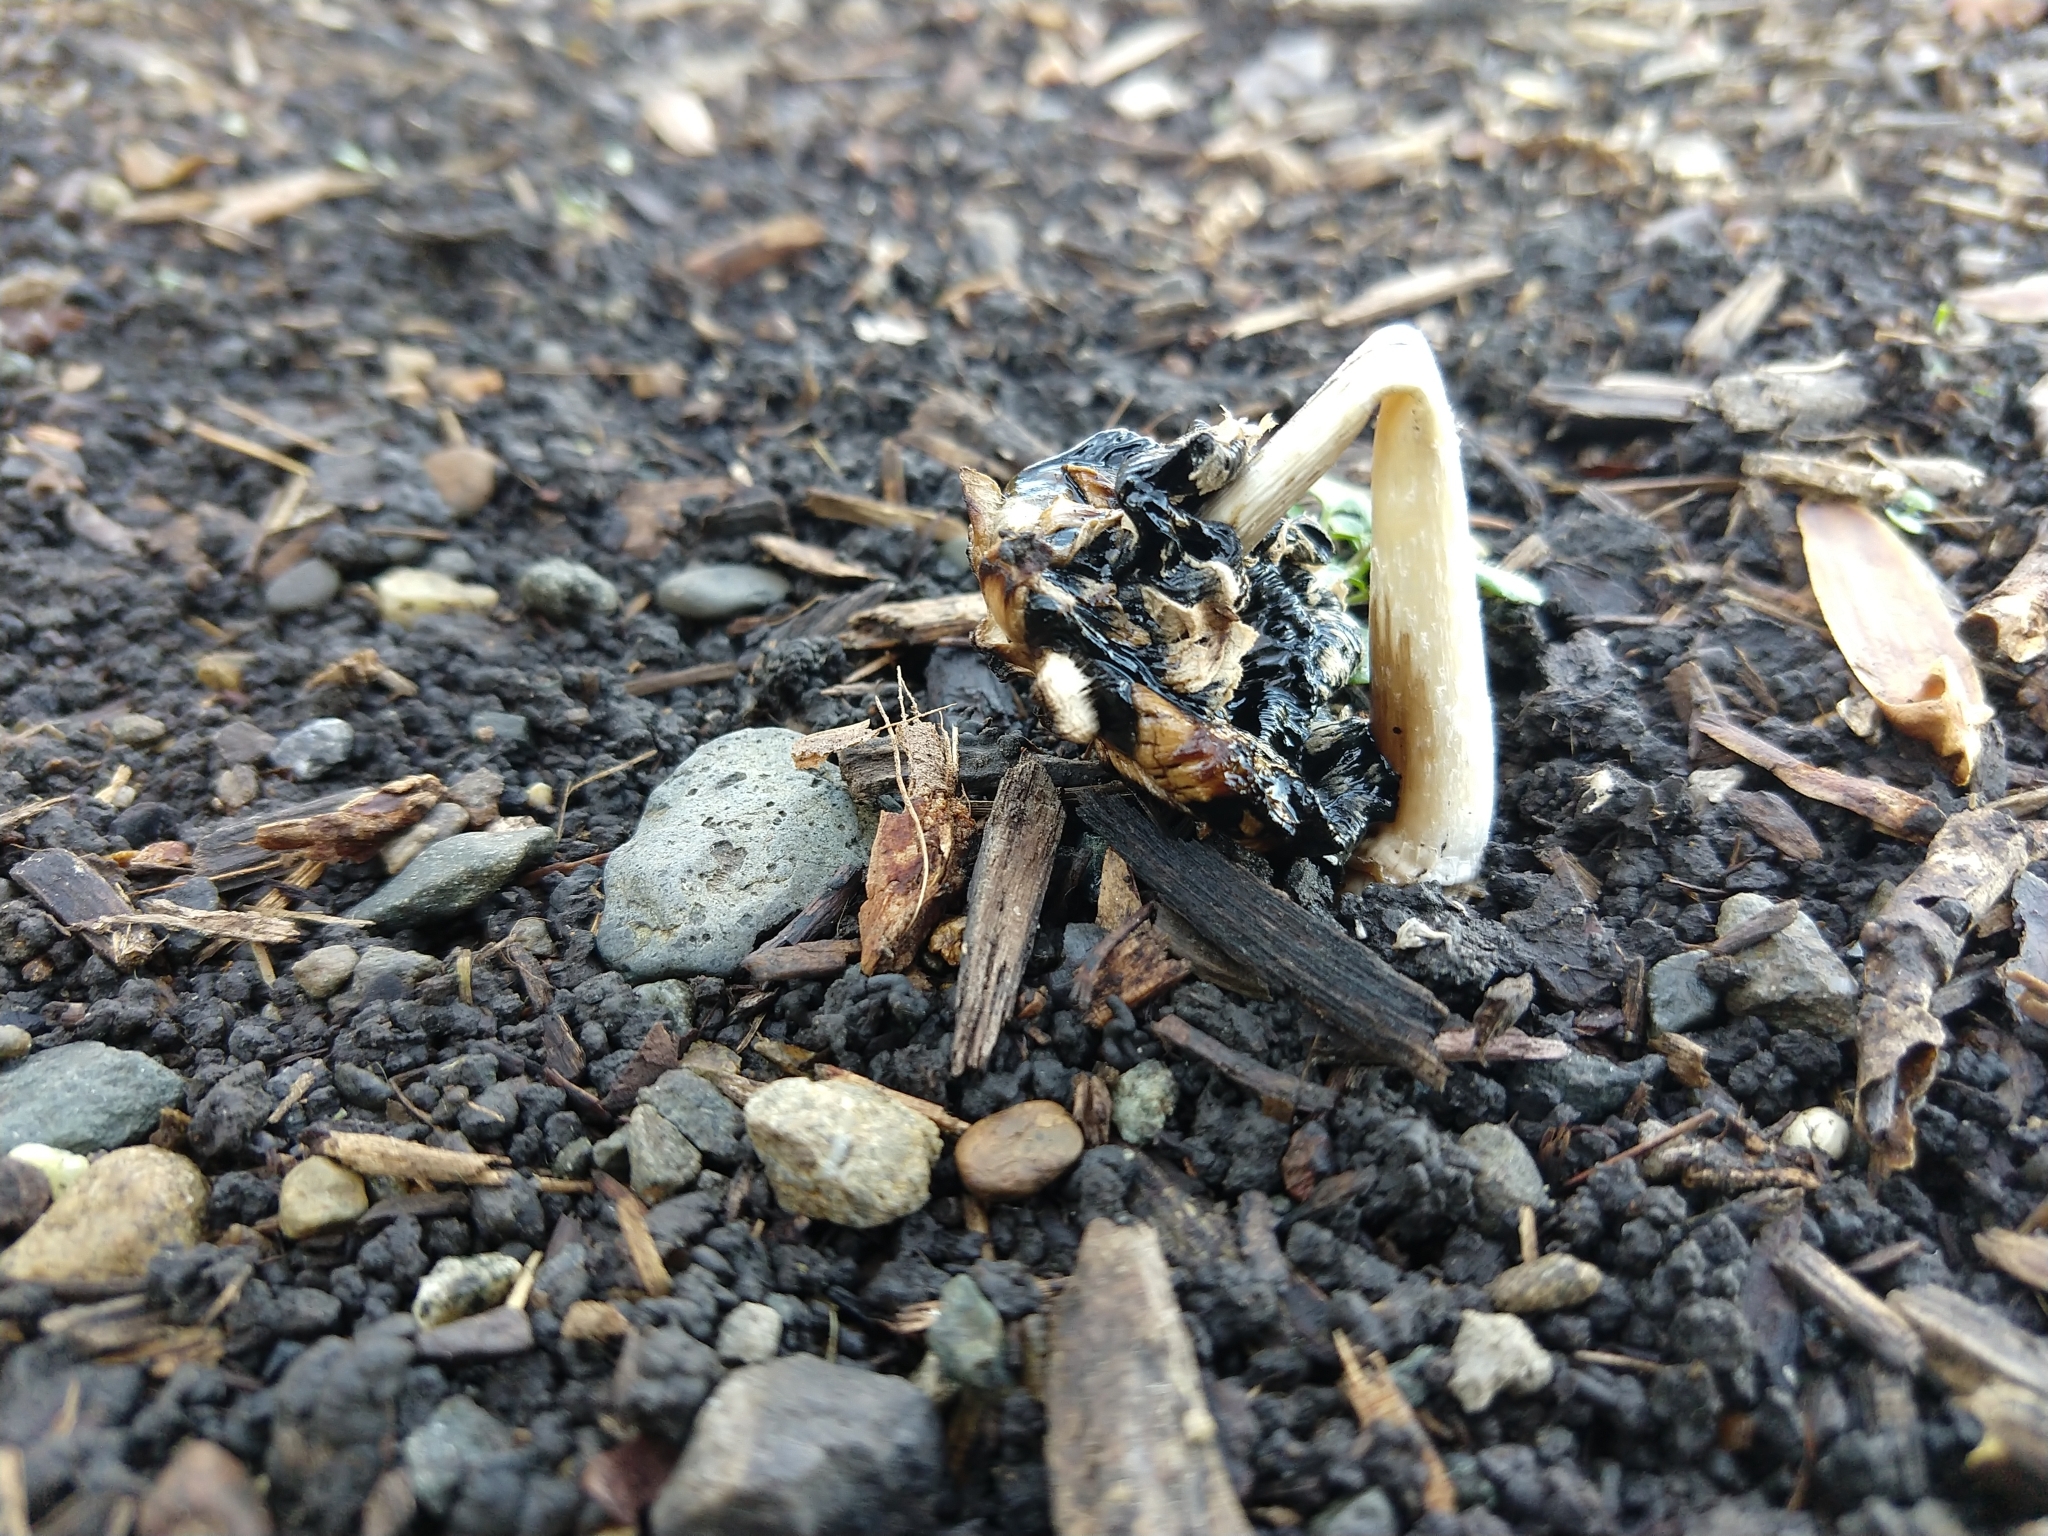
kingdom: Fungi
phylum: Basidiomycota
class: Agaricomycetes
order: Agaricales
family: Agaricaceae
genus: Coprinus
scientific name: Coprinus comatus
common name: Lawyer's wig
